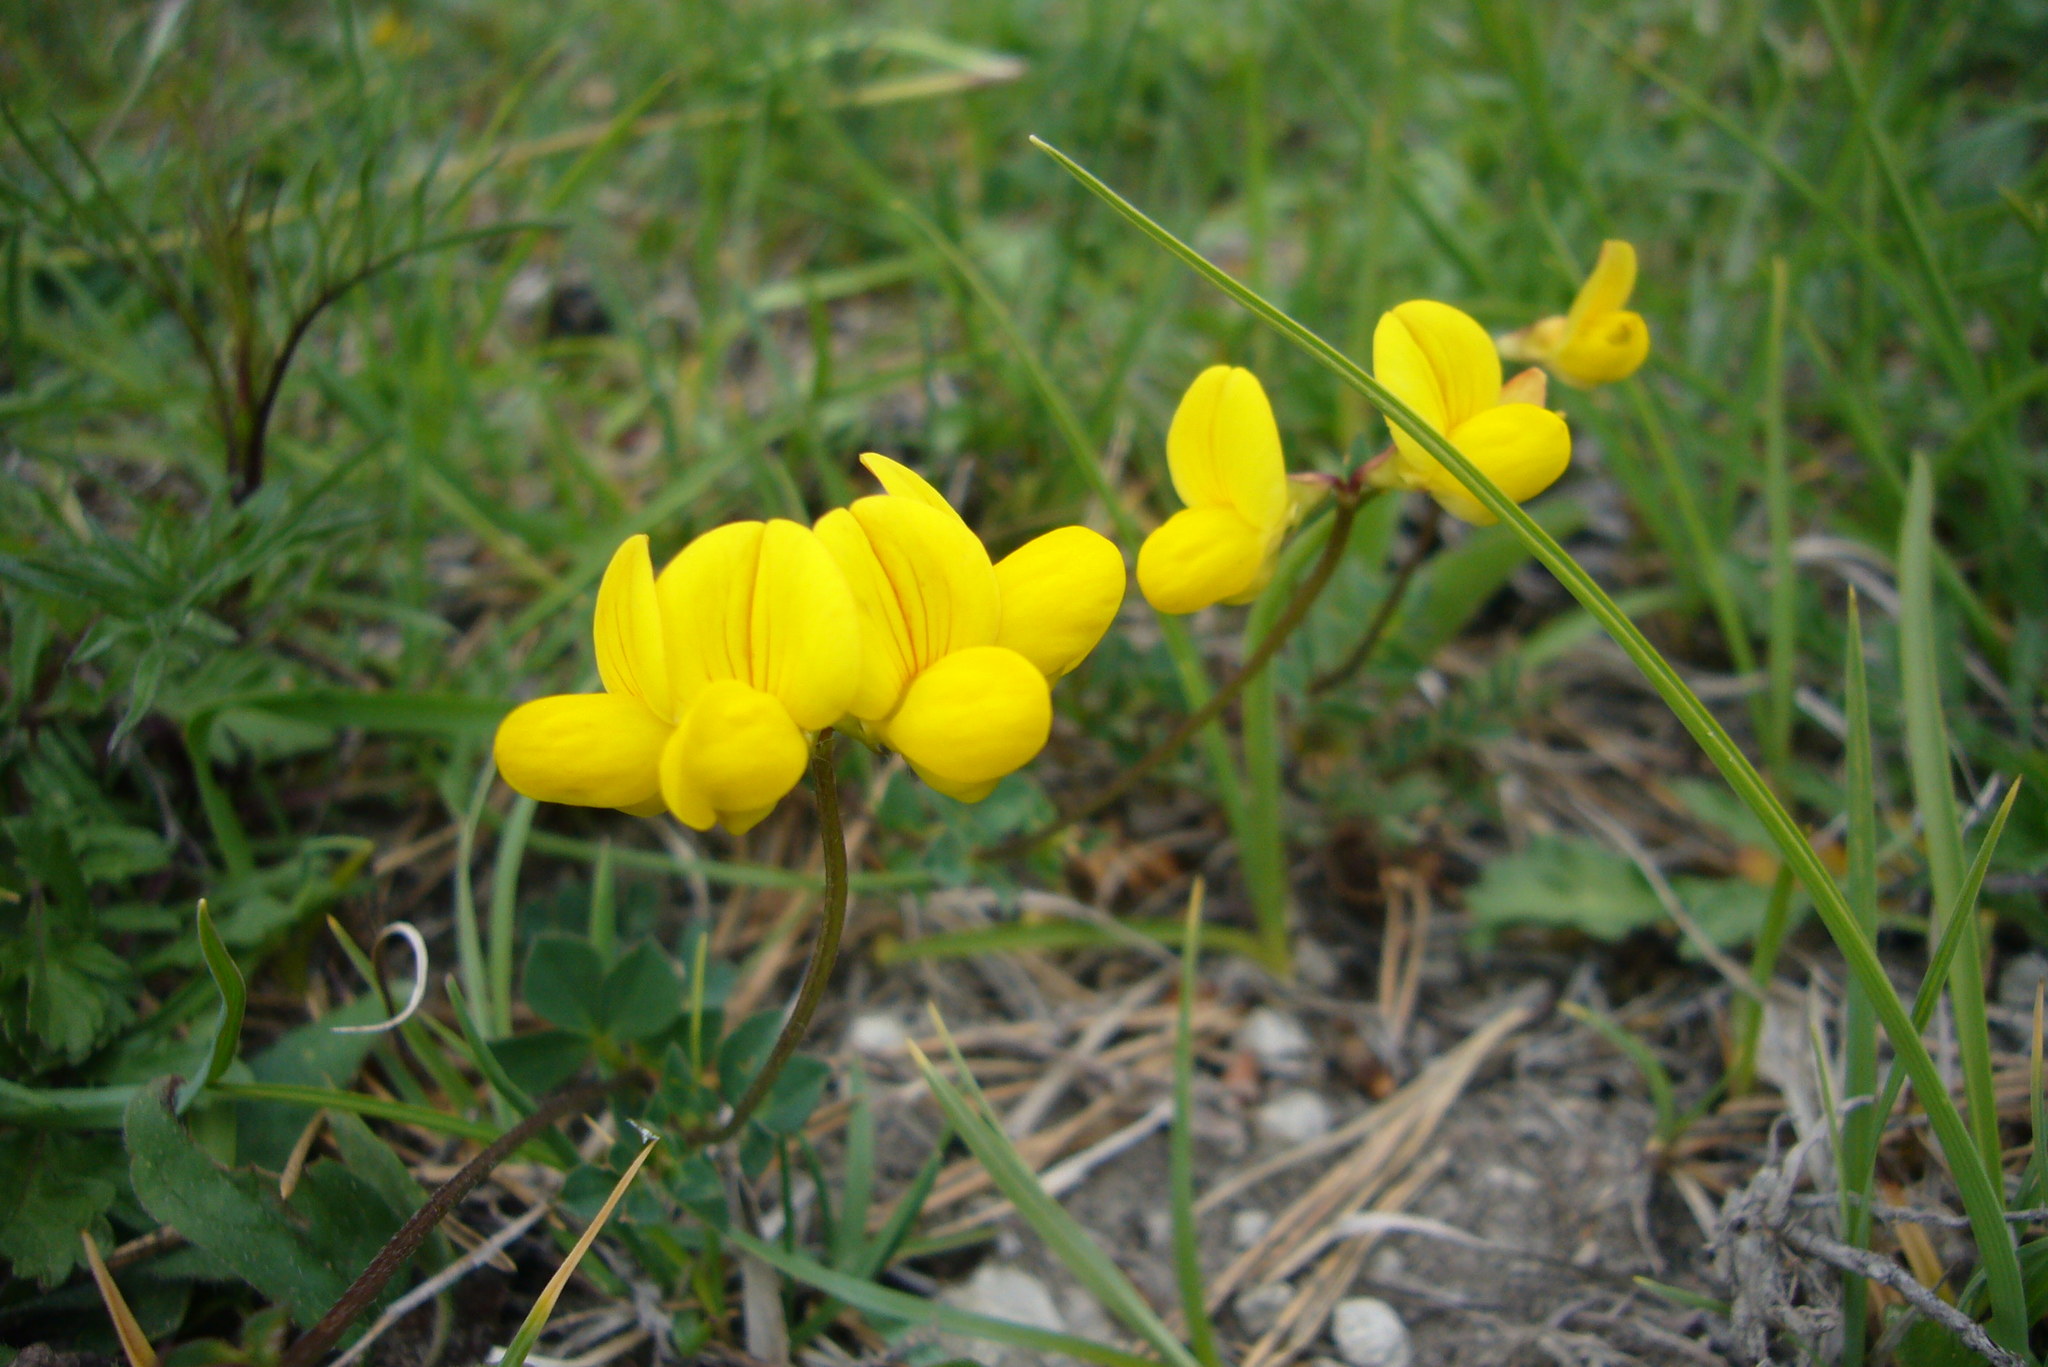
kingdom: Plantae
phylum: Tracheophyta
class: Magnoliopsida
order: Fabales
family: Fabaceae
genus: Lotus
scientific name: Lotus corniculatus
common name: Common bird's-foot-trefoil
